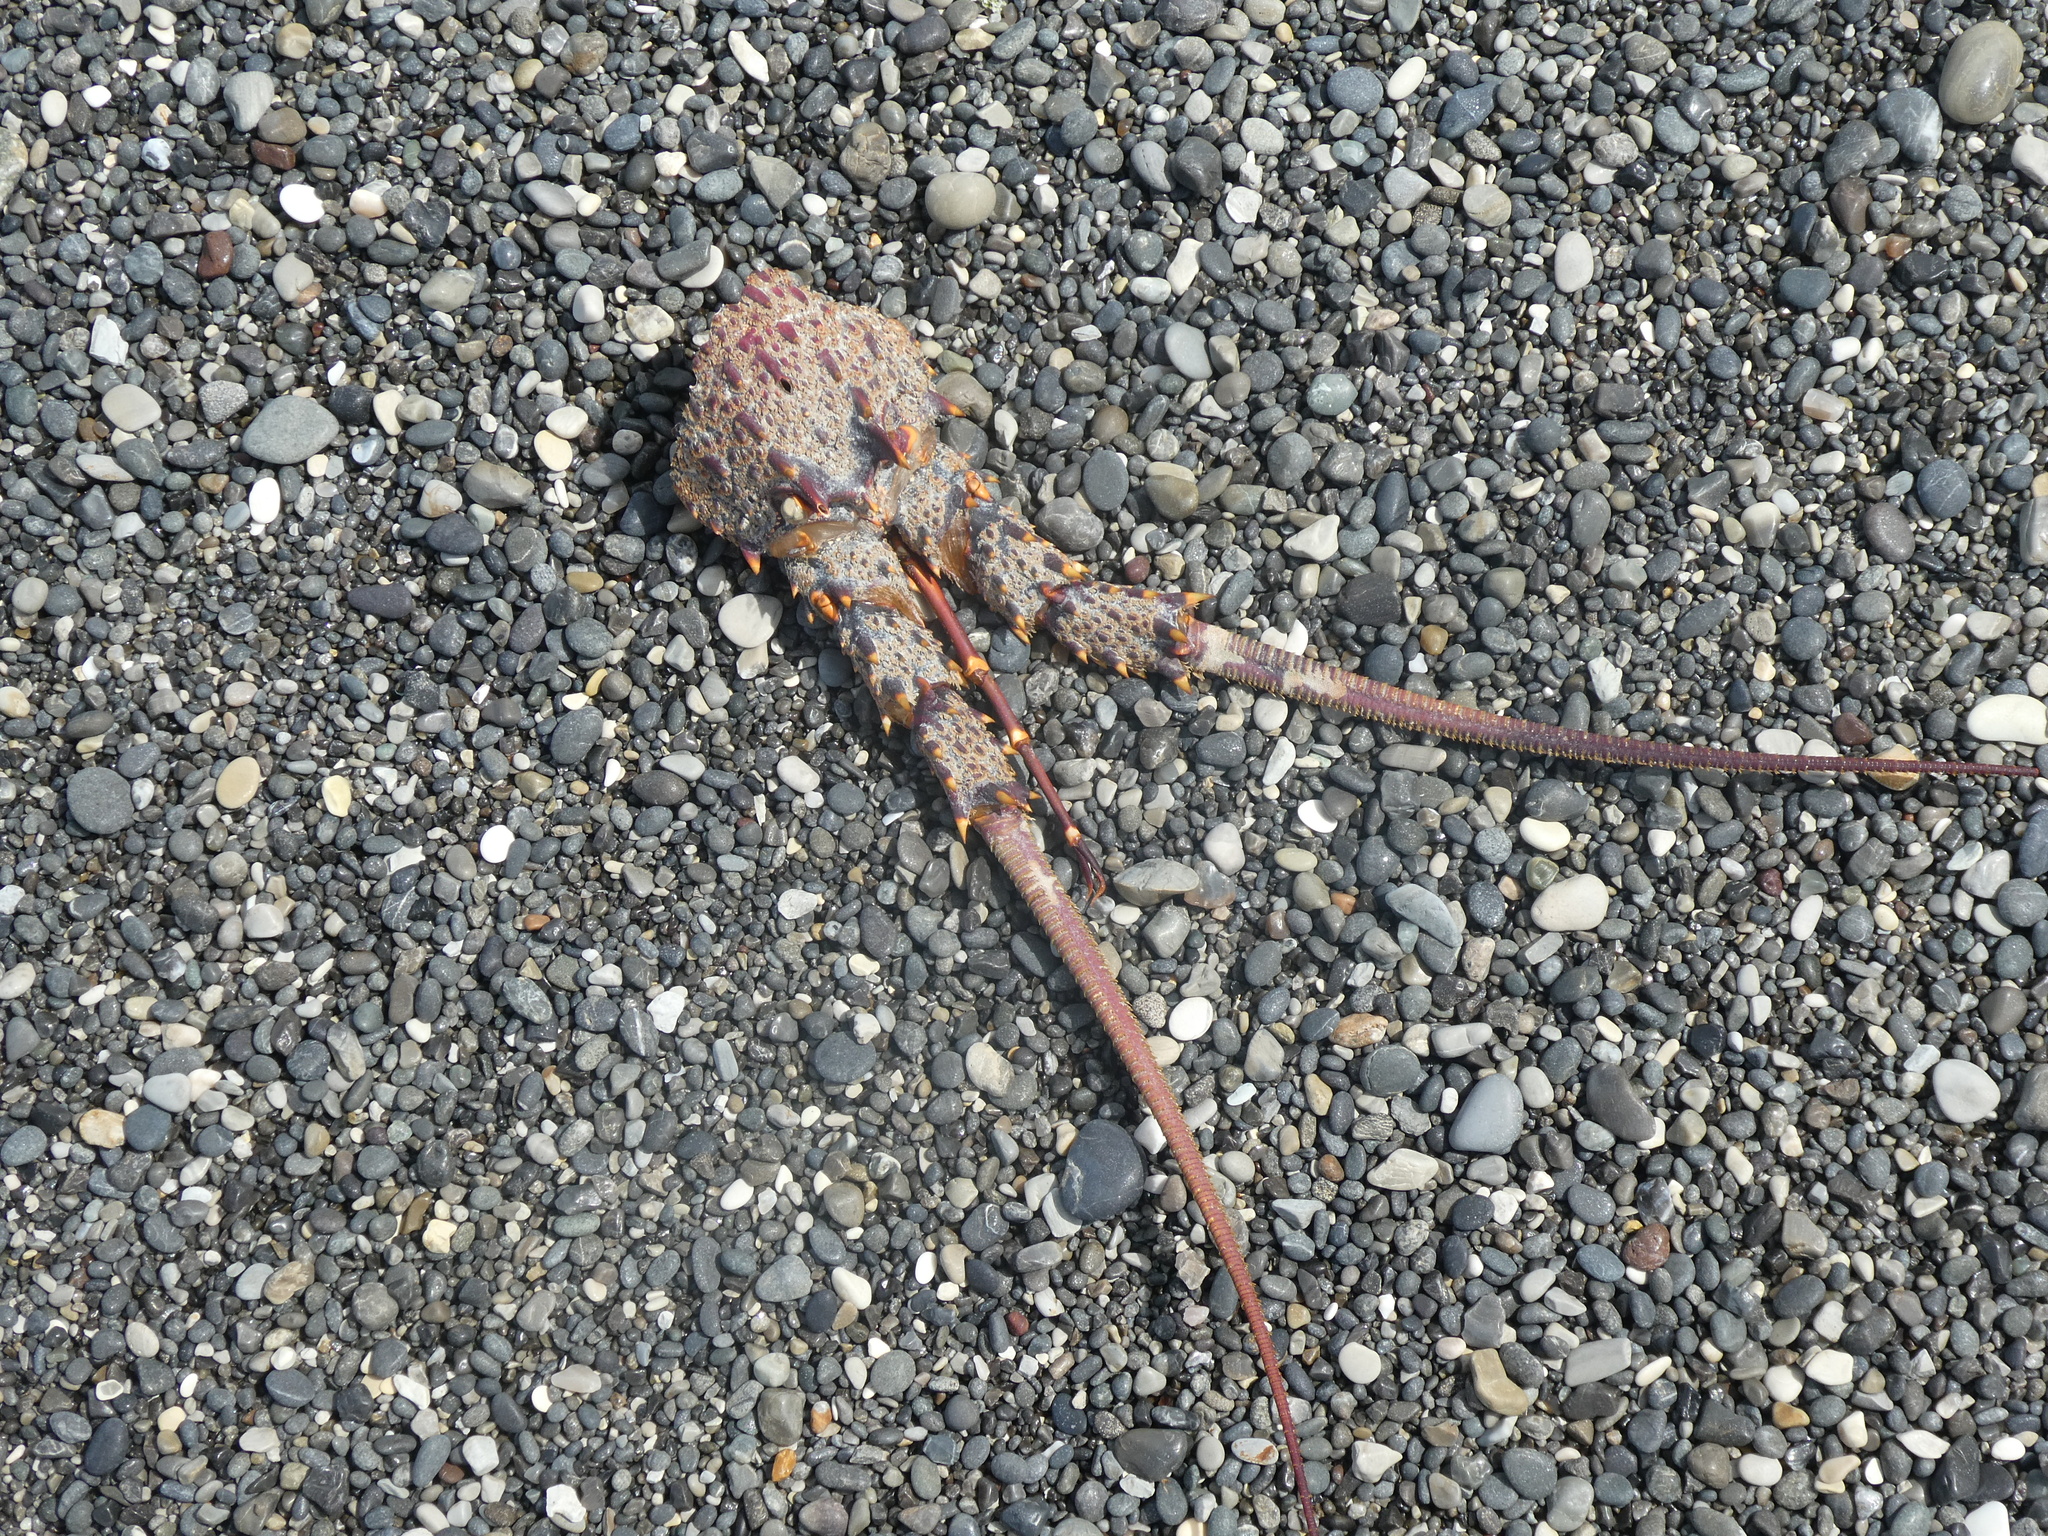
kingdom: Animalia
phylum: Arthropoda
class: Malacostraca
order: Decapoda
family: Palinuridae
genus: Jasus
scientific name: Jasus edwardsii
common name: Red rock lobster
